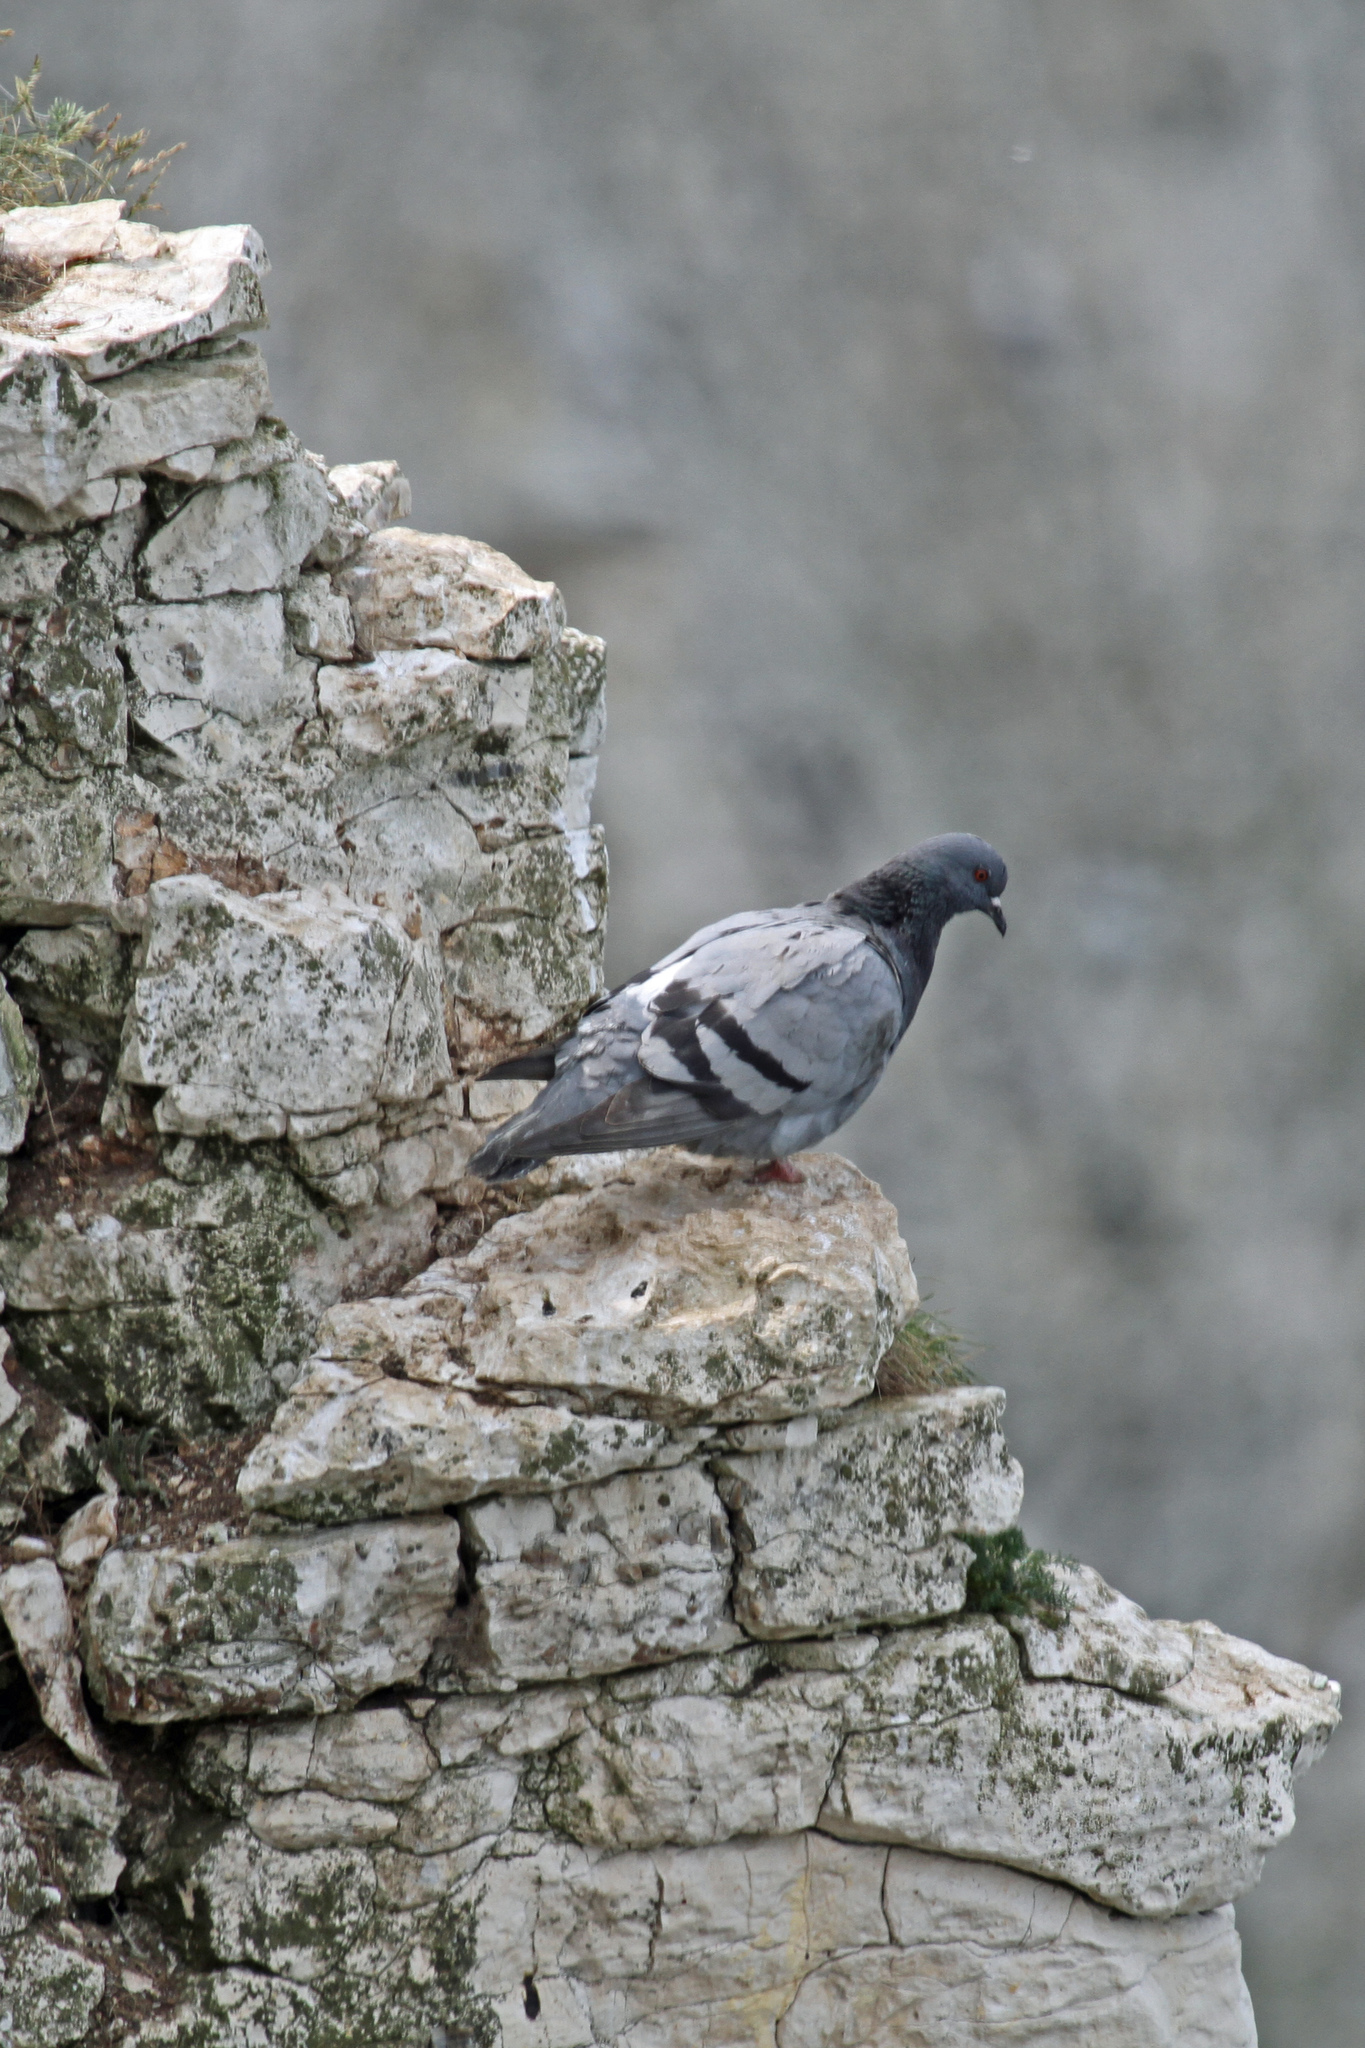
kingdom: Animalia
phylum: Chordata
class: Aves
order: Columbiformes
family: Columbidae
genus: Columba
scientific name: Columba livia
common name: Rock pigeon
